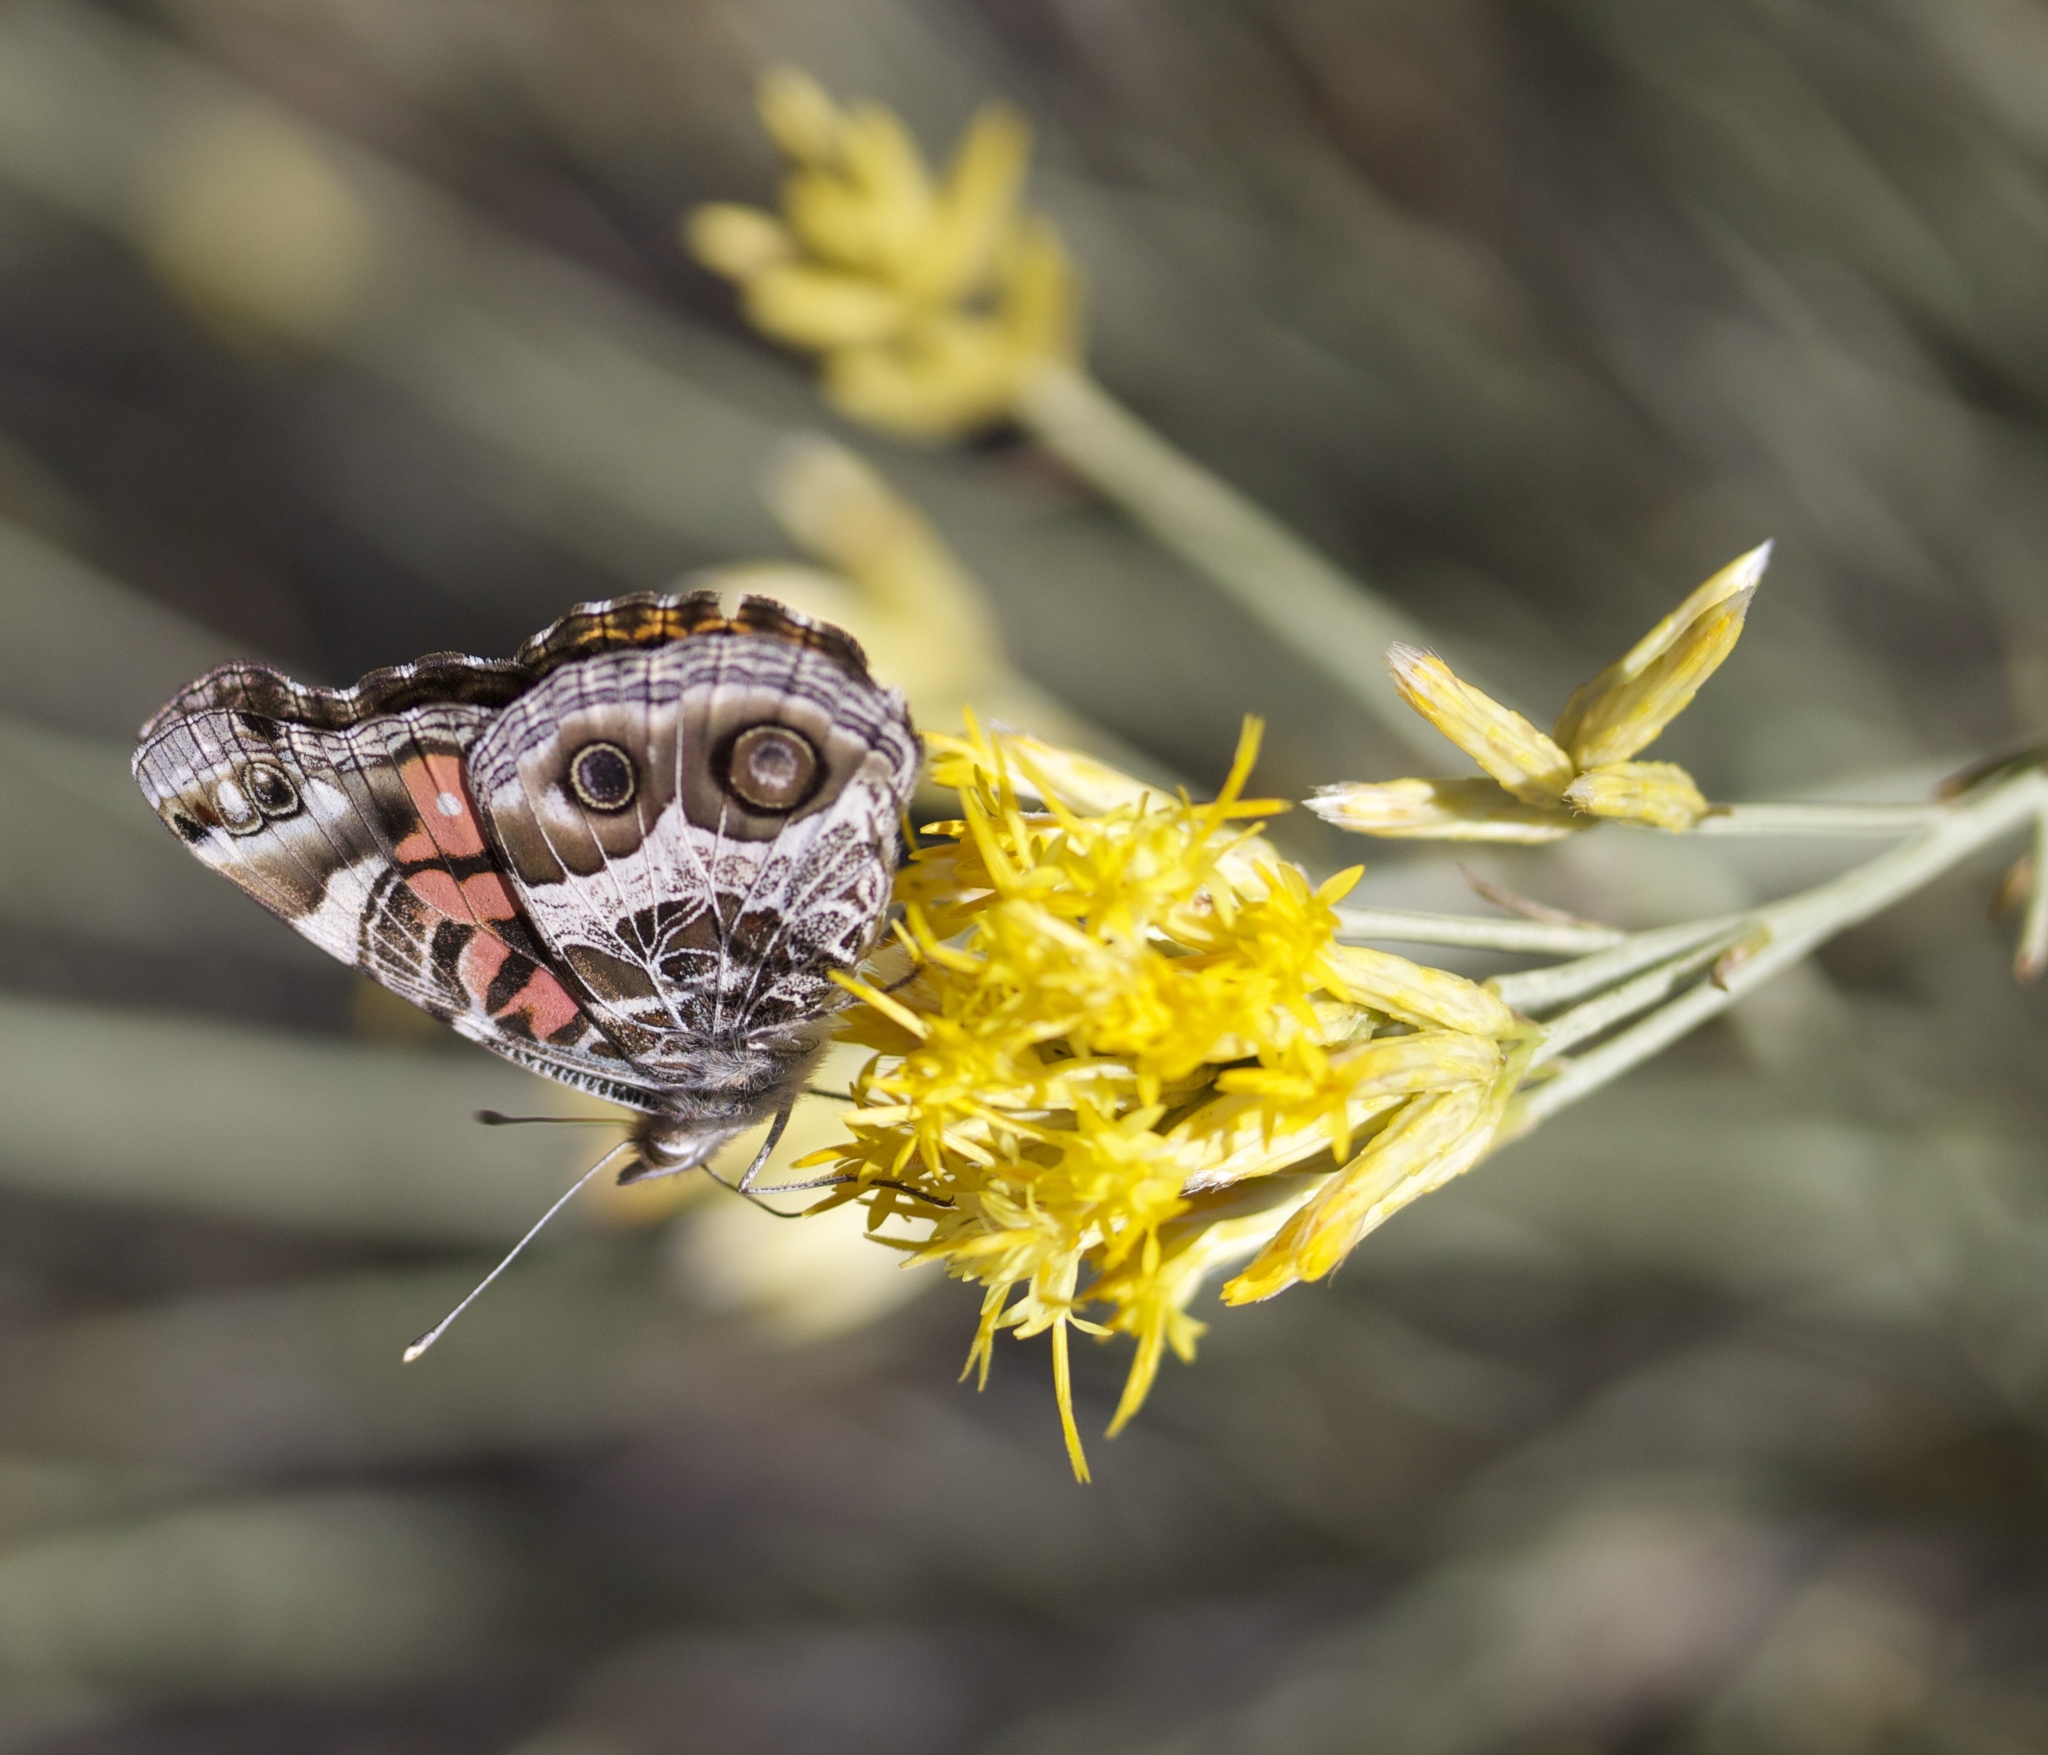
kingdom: Animalia
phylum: Arthropoda
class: Insecta
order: Lepidoptera
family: Nymphalidae
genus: Vanessa
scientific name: Vanessa virginiensis
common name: American lady
